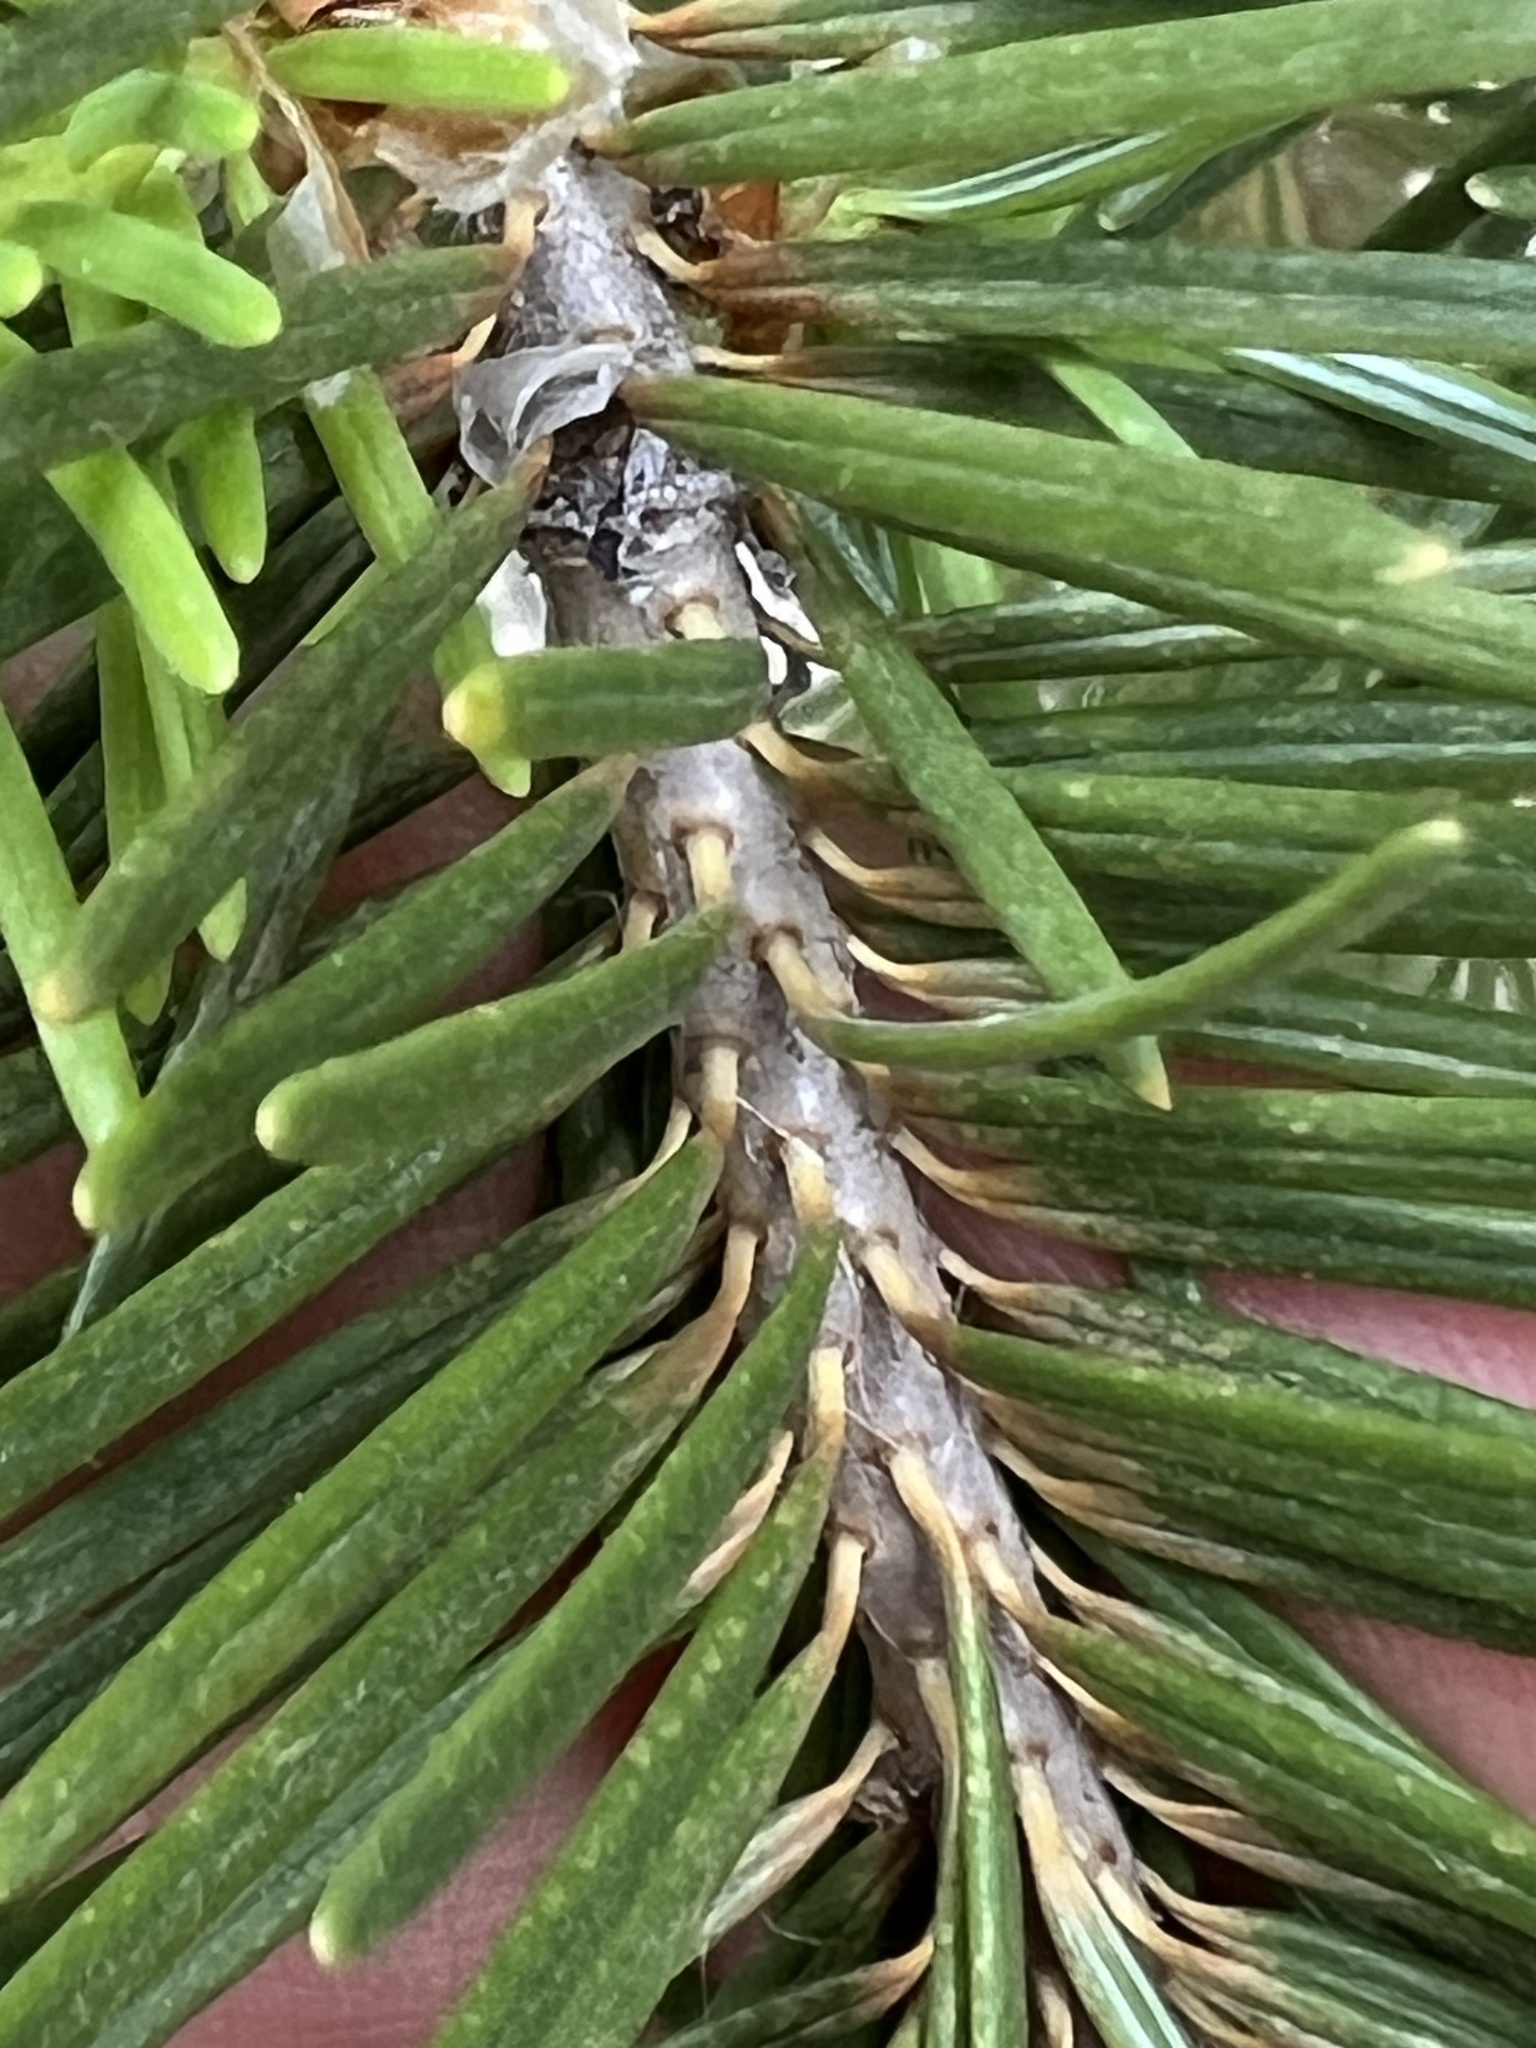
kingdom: Plantae
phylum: Tracheophyta
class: Pinopsida
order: Pinales
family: Pinaceae
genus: Pseudotsuga
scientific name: Pseudotsuga menziesii
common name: Douglas fir
